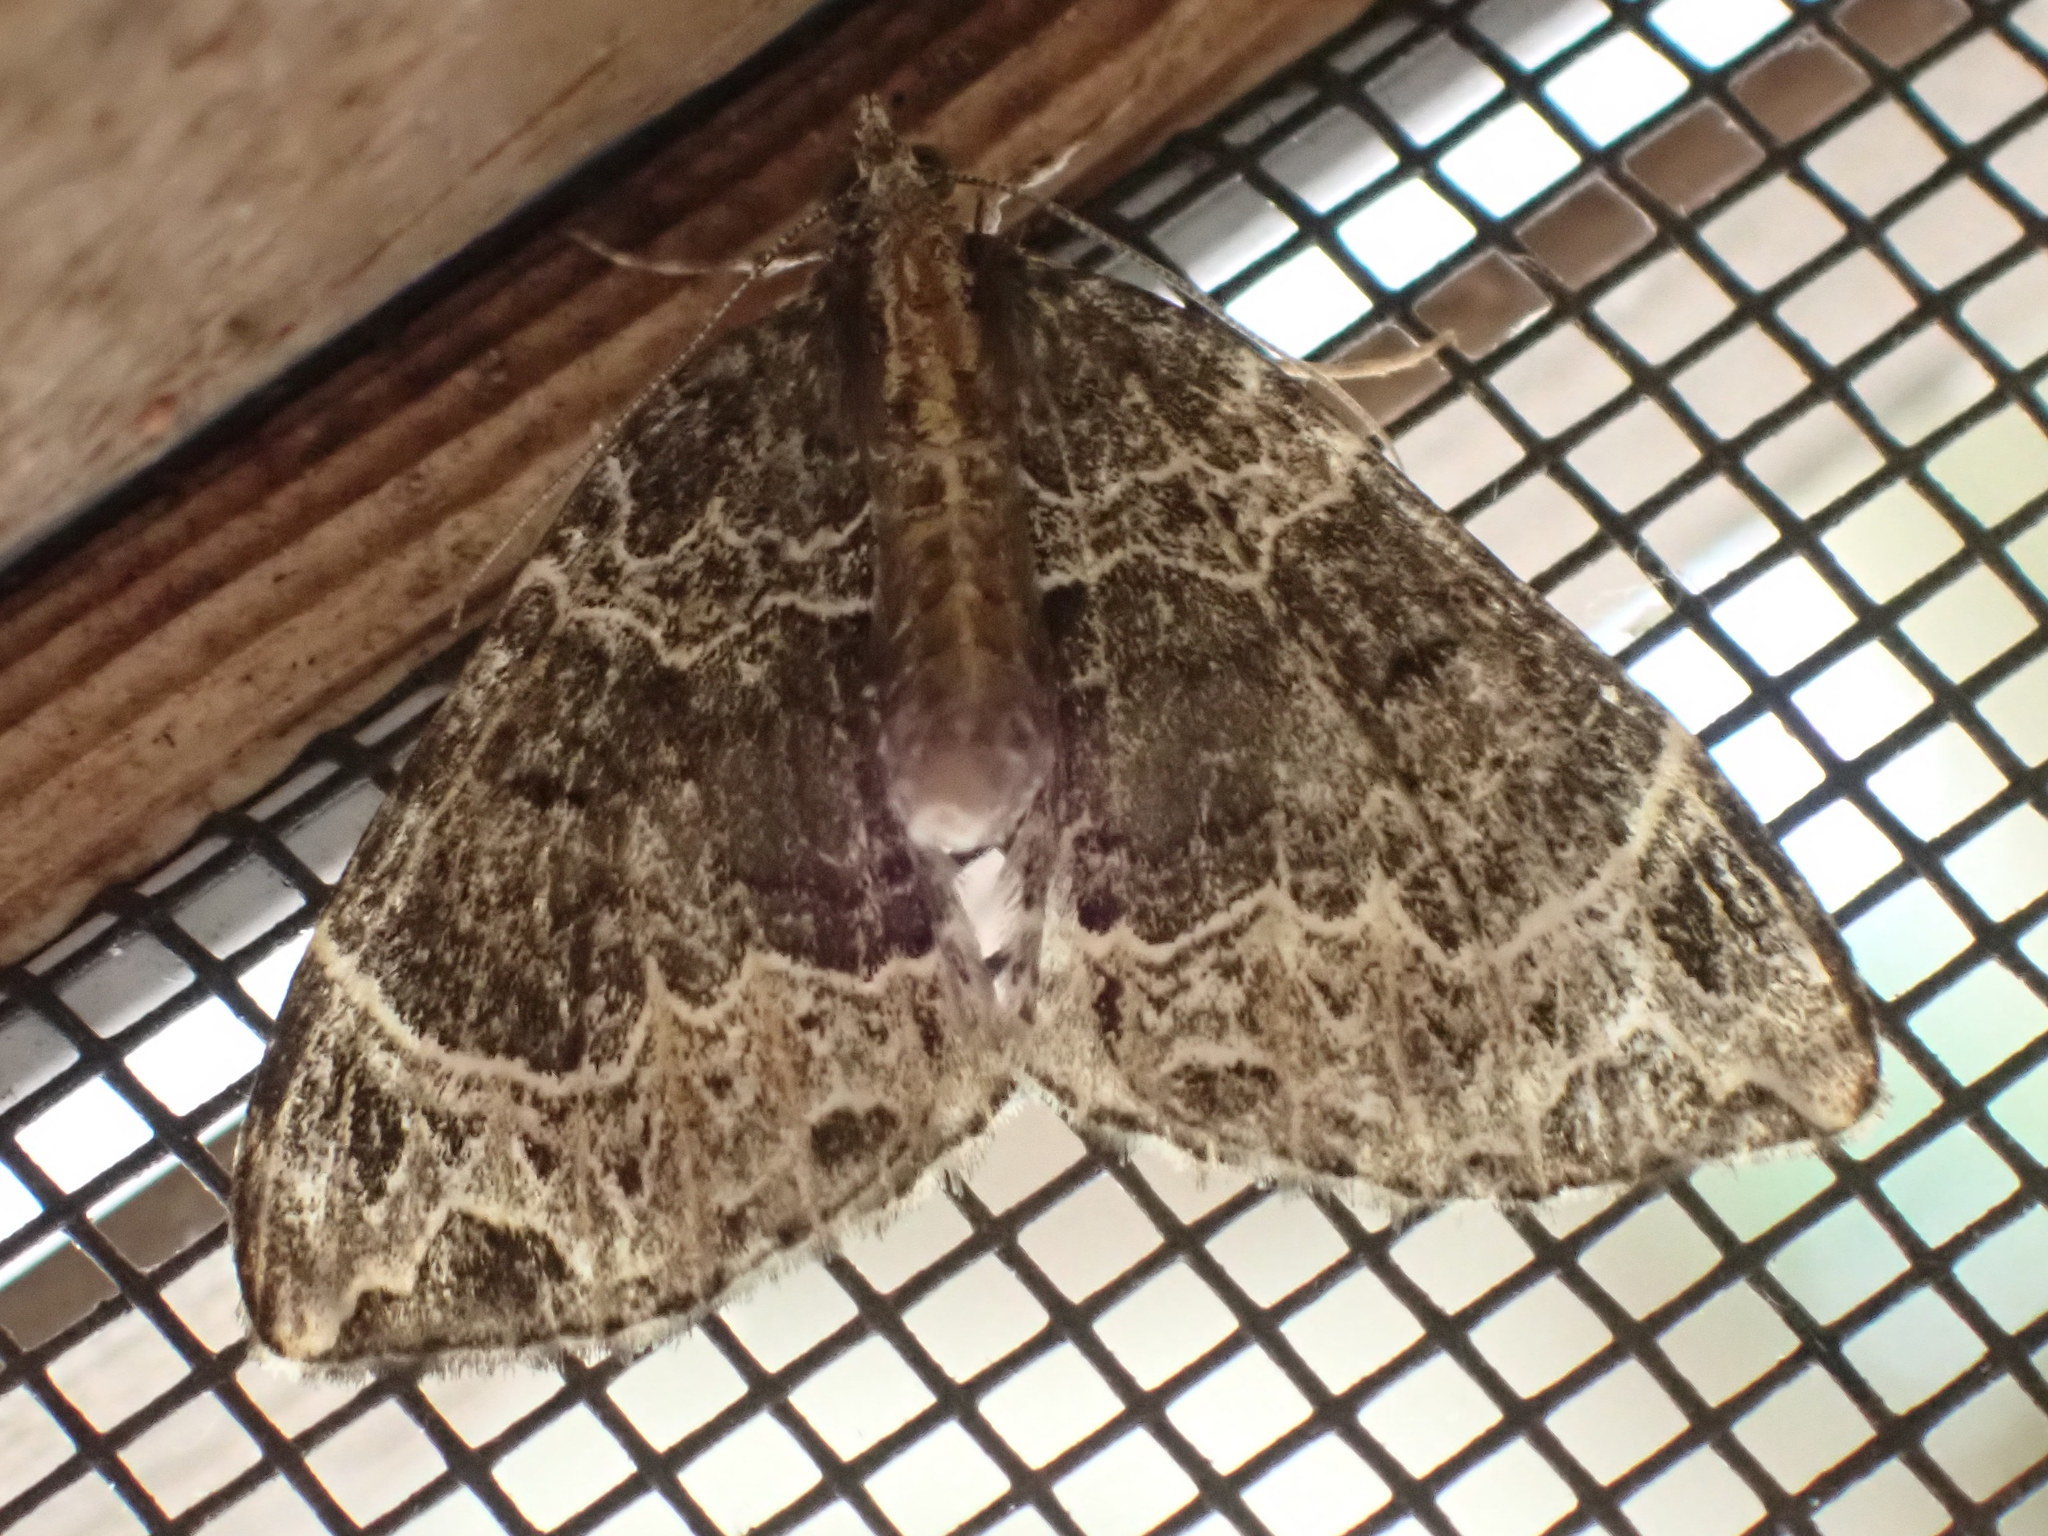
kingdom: Animalia
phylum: Arthropoda
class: Insecta
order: Lepidoptera
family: Geometridae
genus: Ecliptopera
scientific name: Ecliptopera silaceata
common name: Small phoenix
